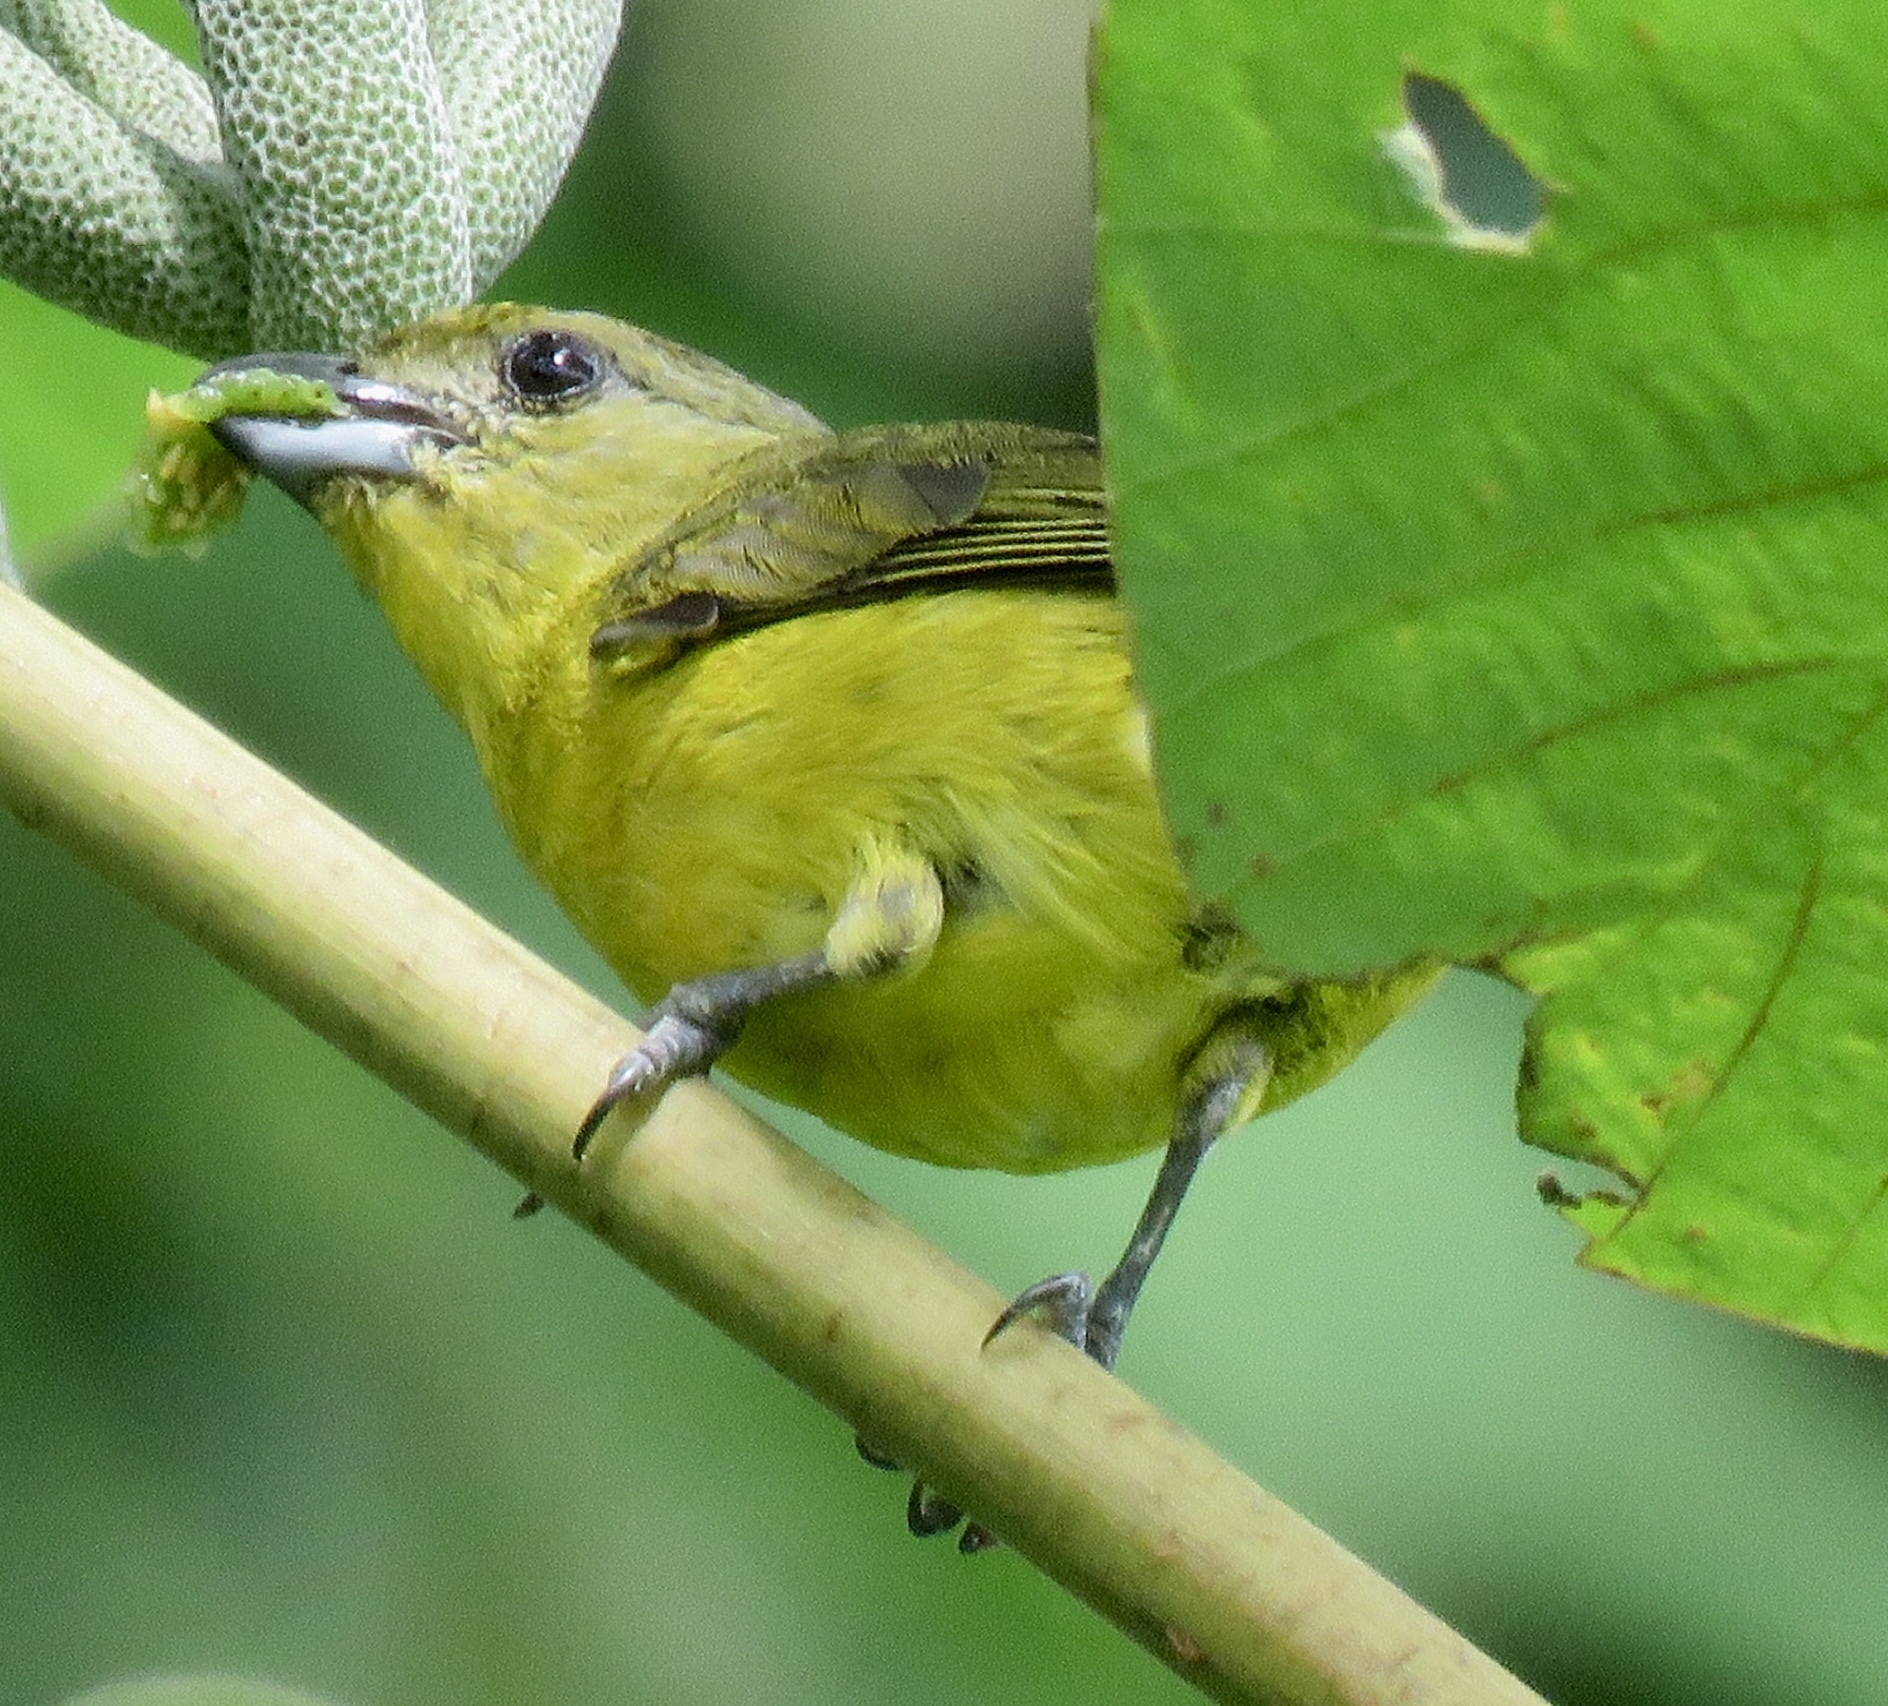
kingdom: Animalia
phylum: Chordata
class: Aves
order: Passeriformes
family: Fringillidae
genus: Euphonia
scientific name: Euphonia laniirostris
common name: Thick-billed euphonia
